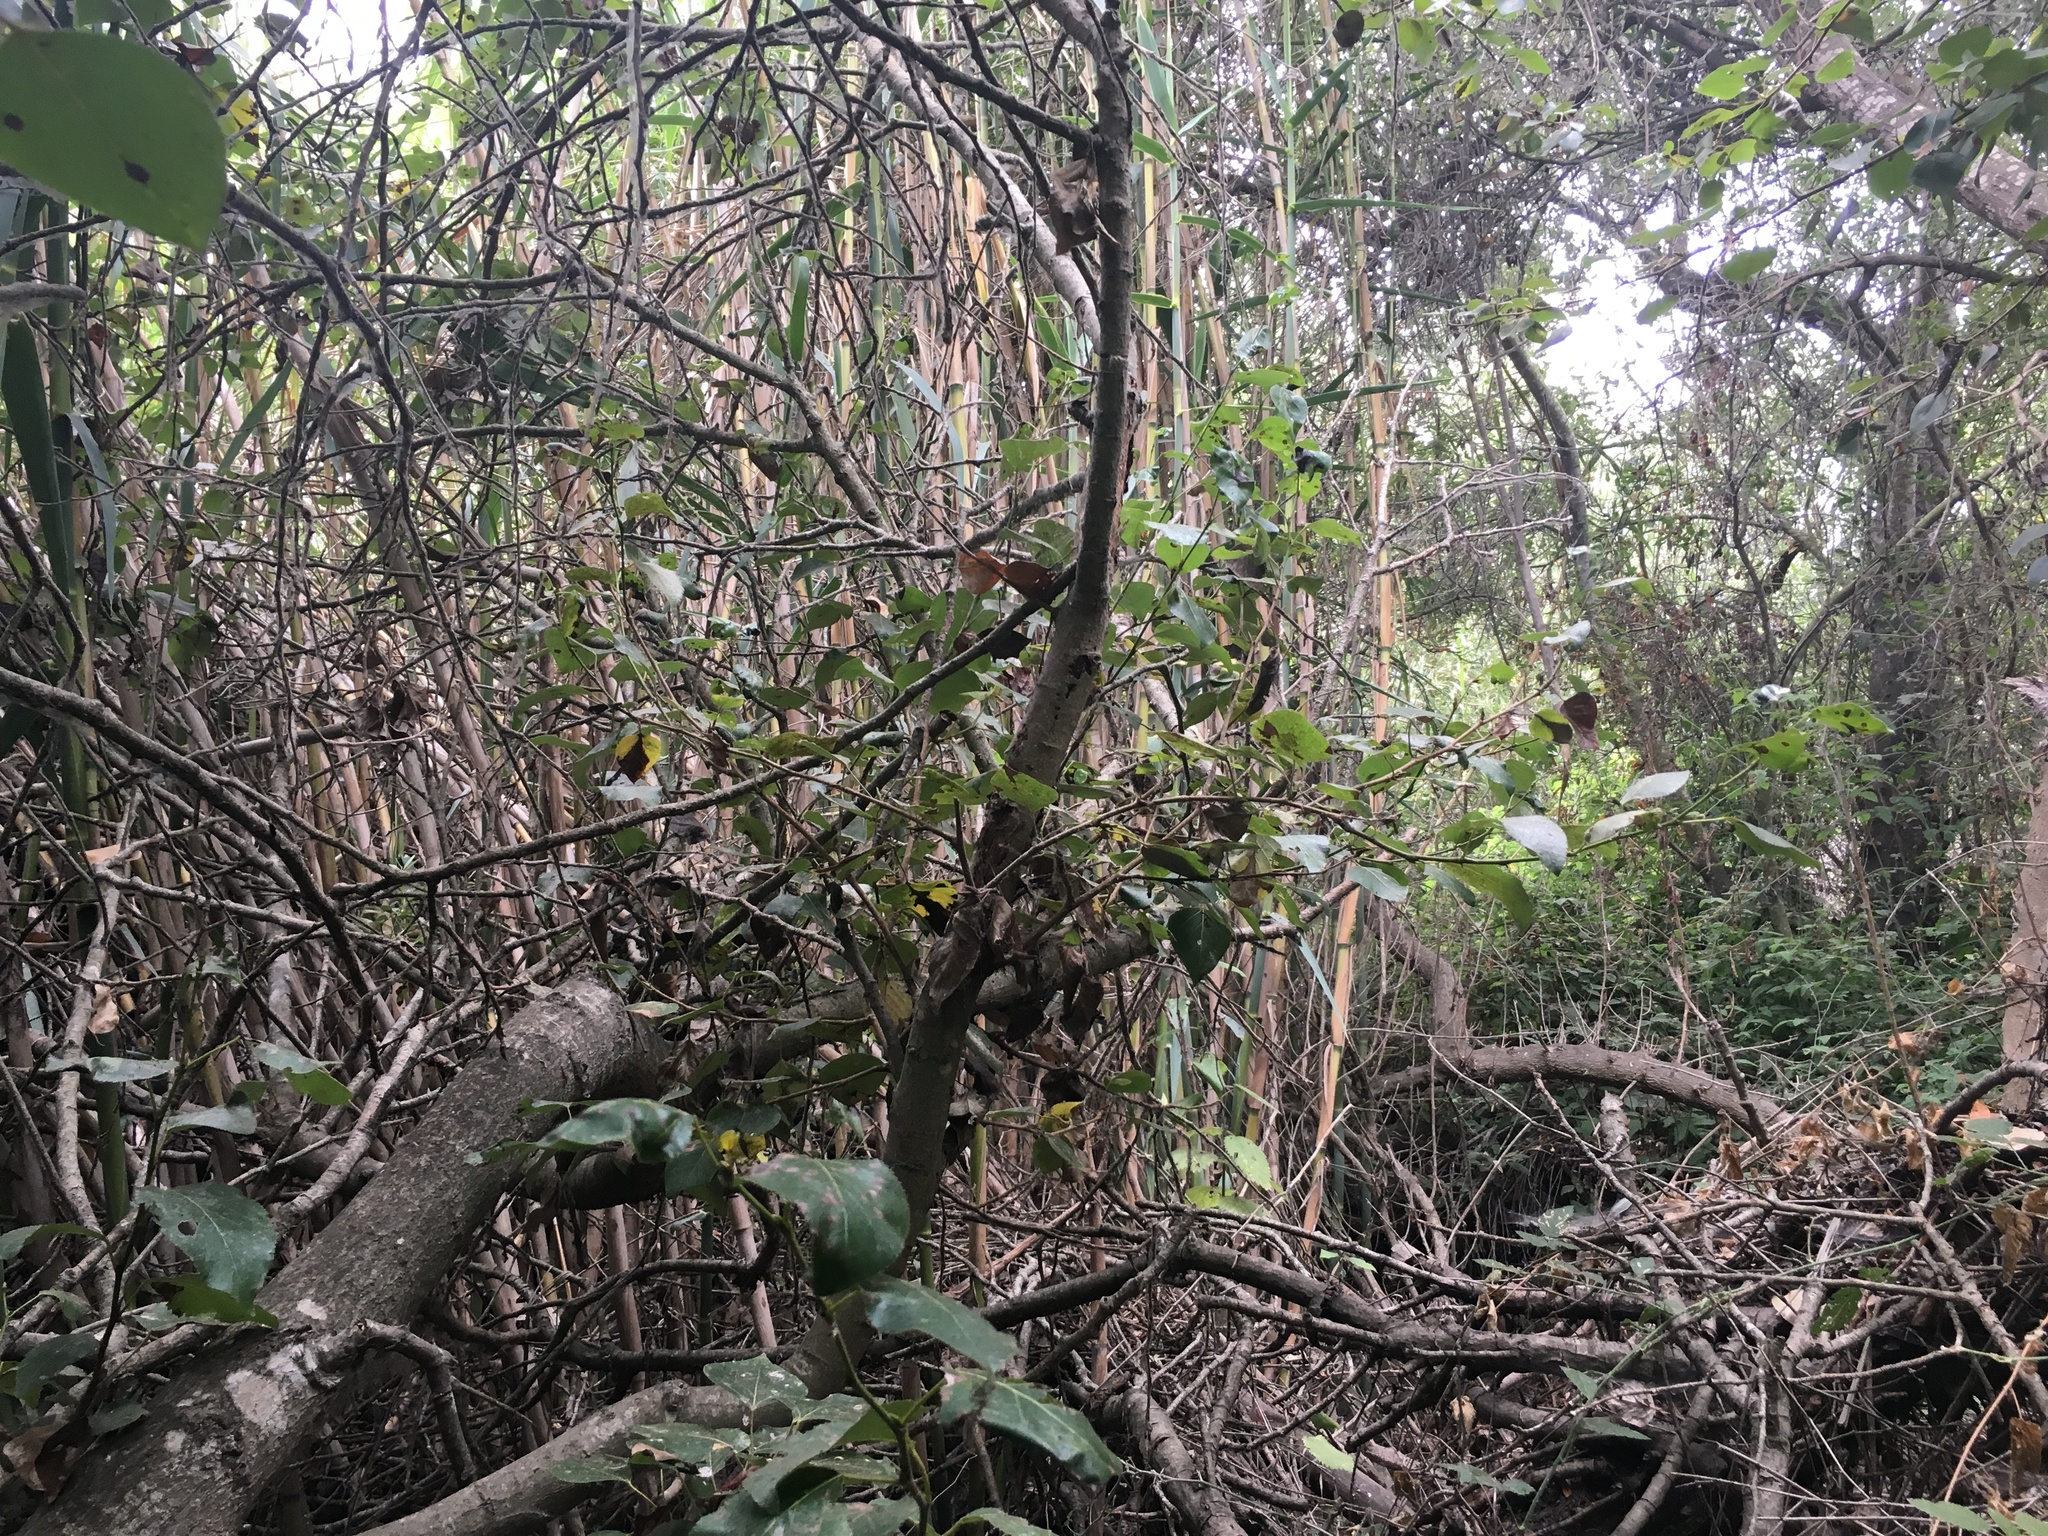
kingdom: Plantae
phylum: Tracheophyta
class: Magnoliopsida
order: Malpighiales
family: Salicaceae
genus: Populus
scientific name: Populus trichocarpa
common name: Black cottonwood
